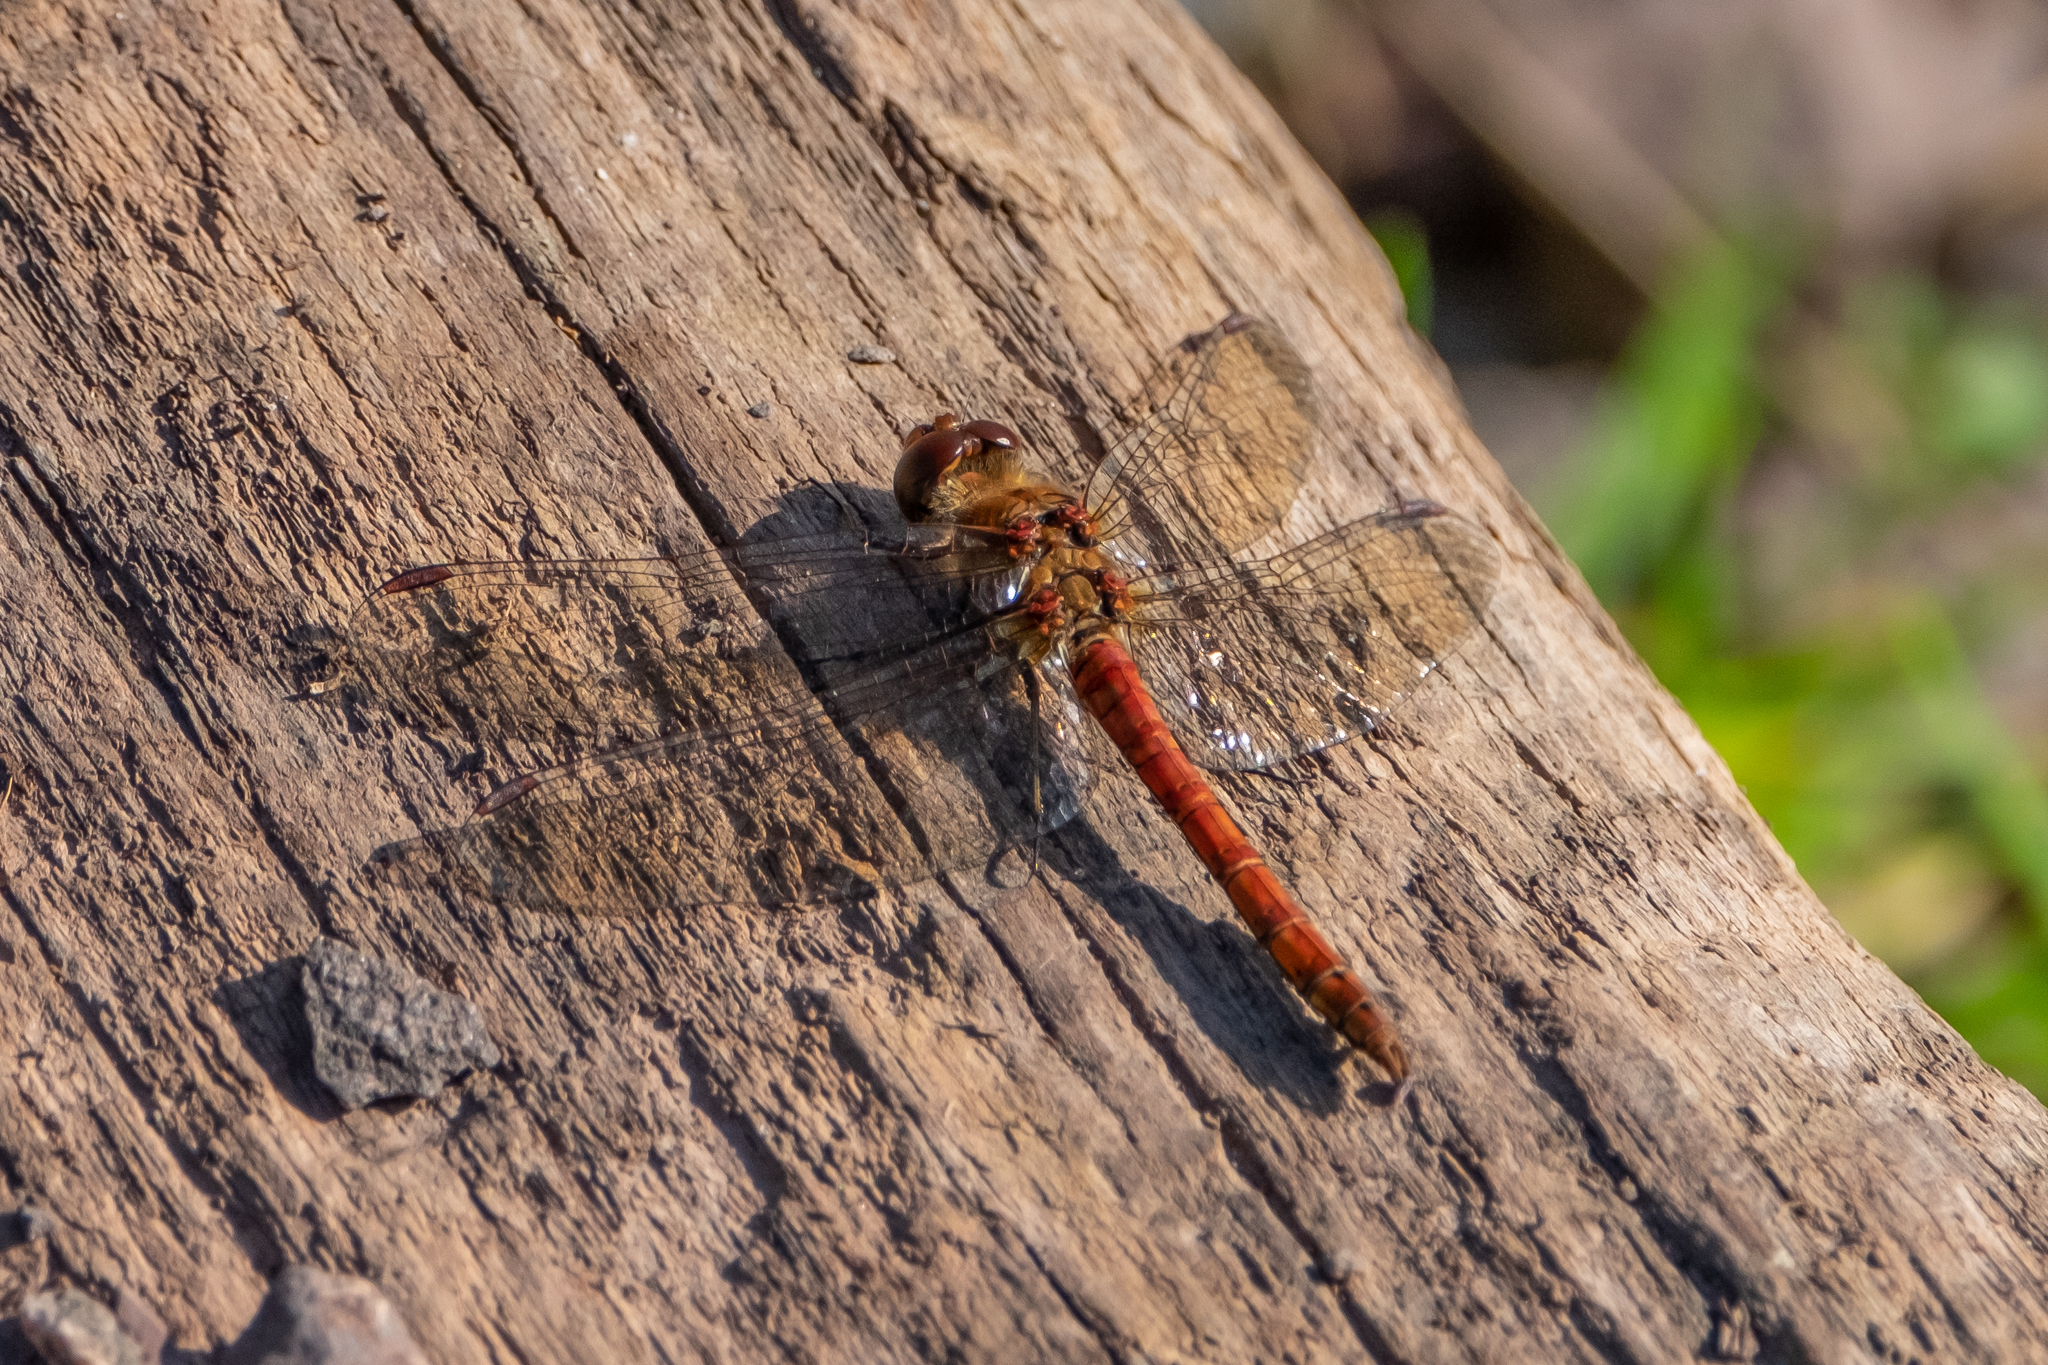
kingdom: Animalia
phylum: Arthropoda
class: Insecta
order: Odonata
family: Libellulidae
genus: Sympetrum
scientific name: Sympetrum striolatum
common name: Common darter
